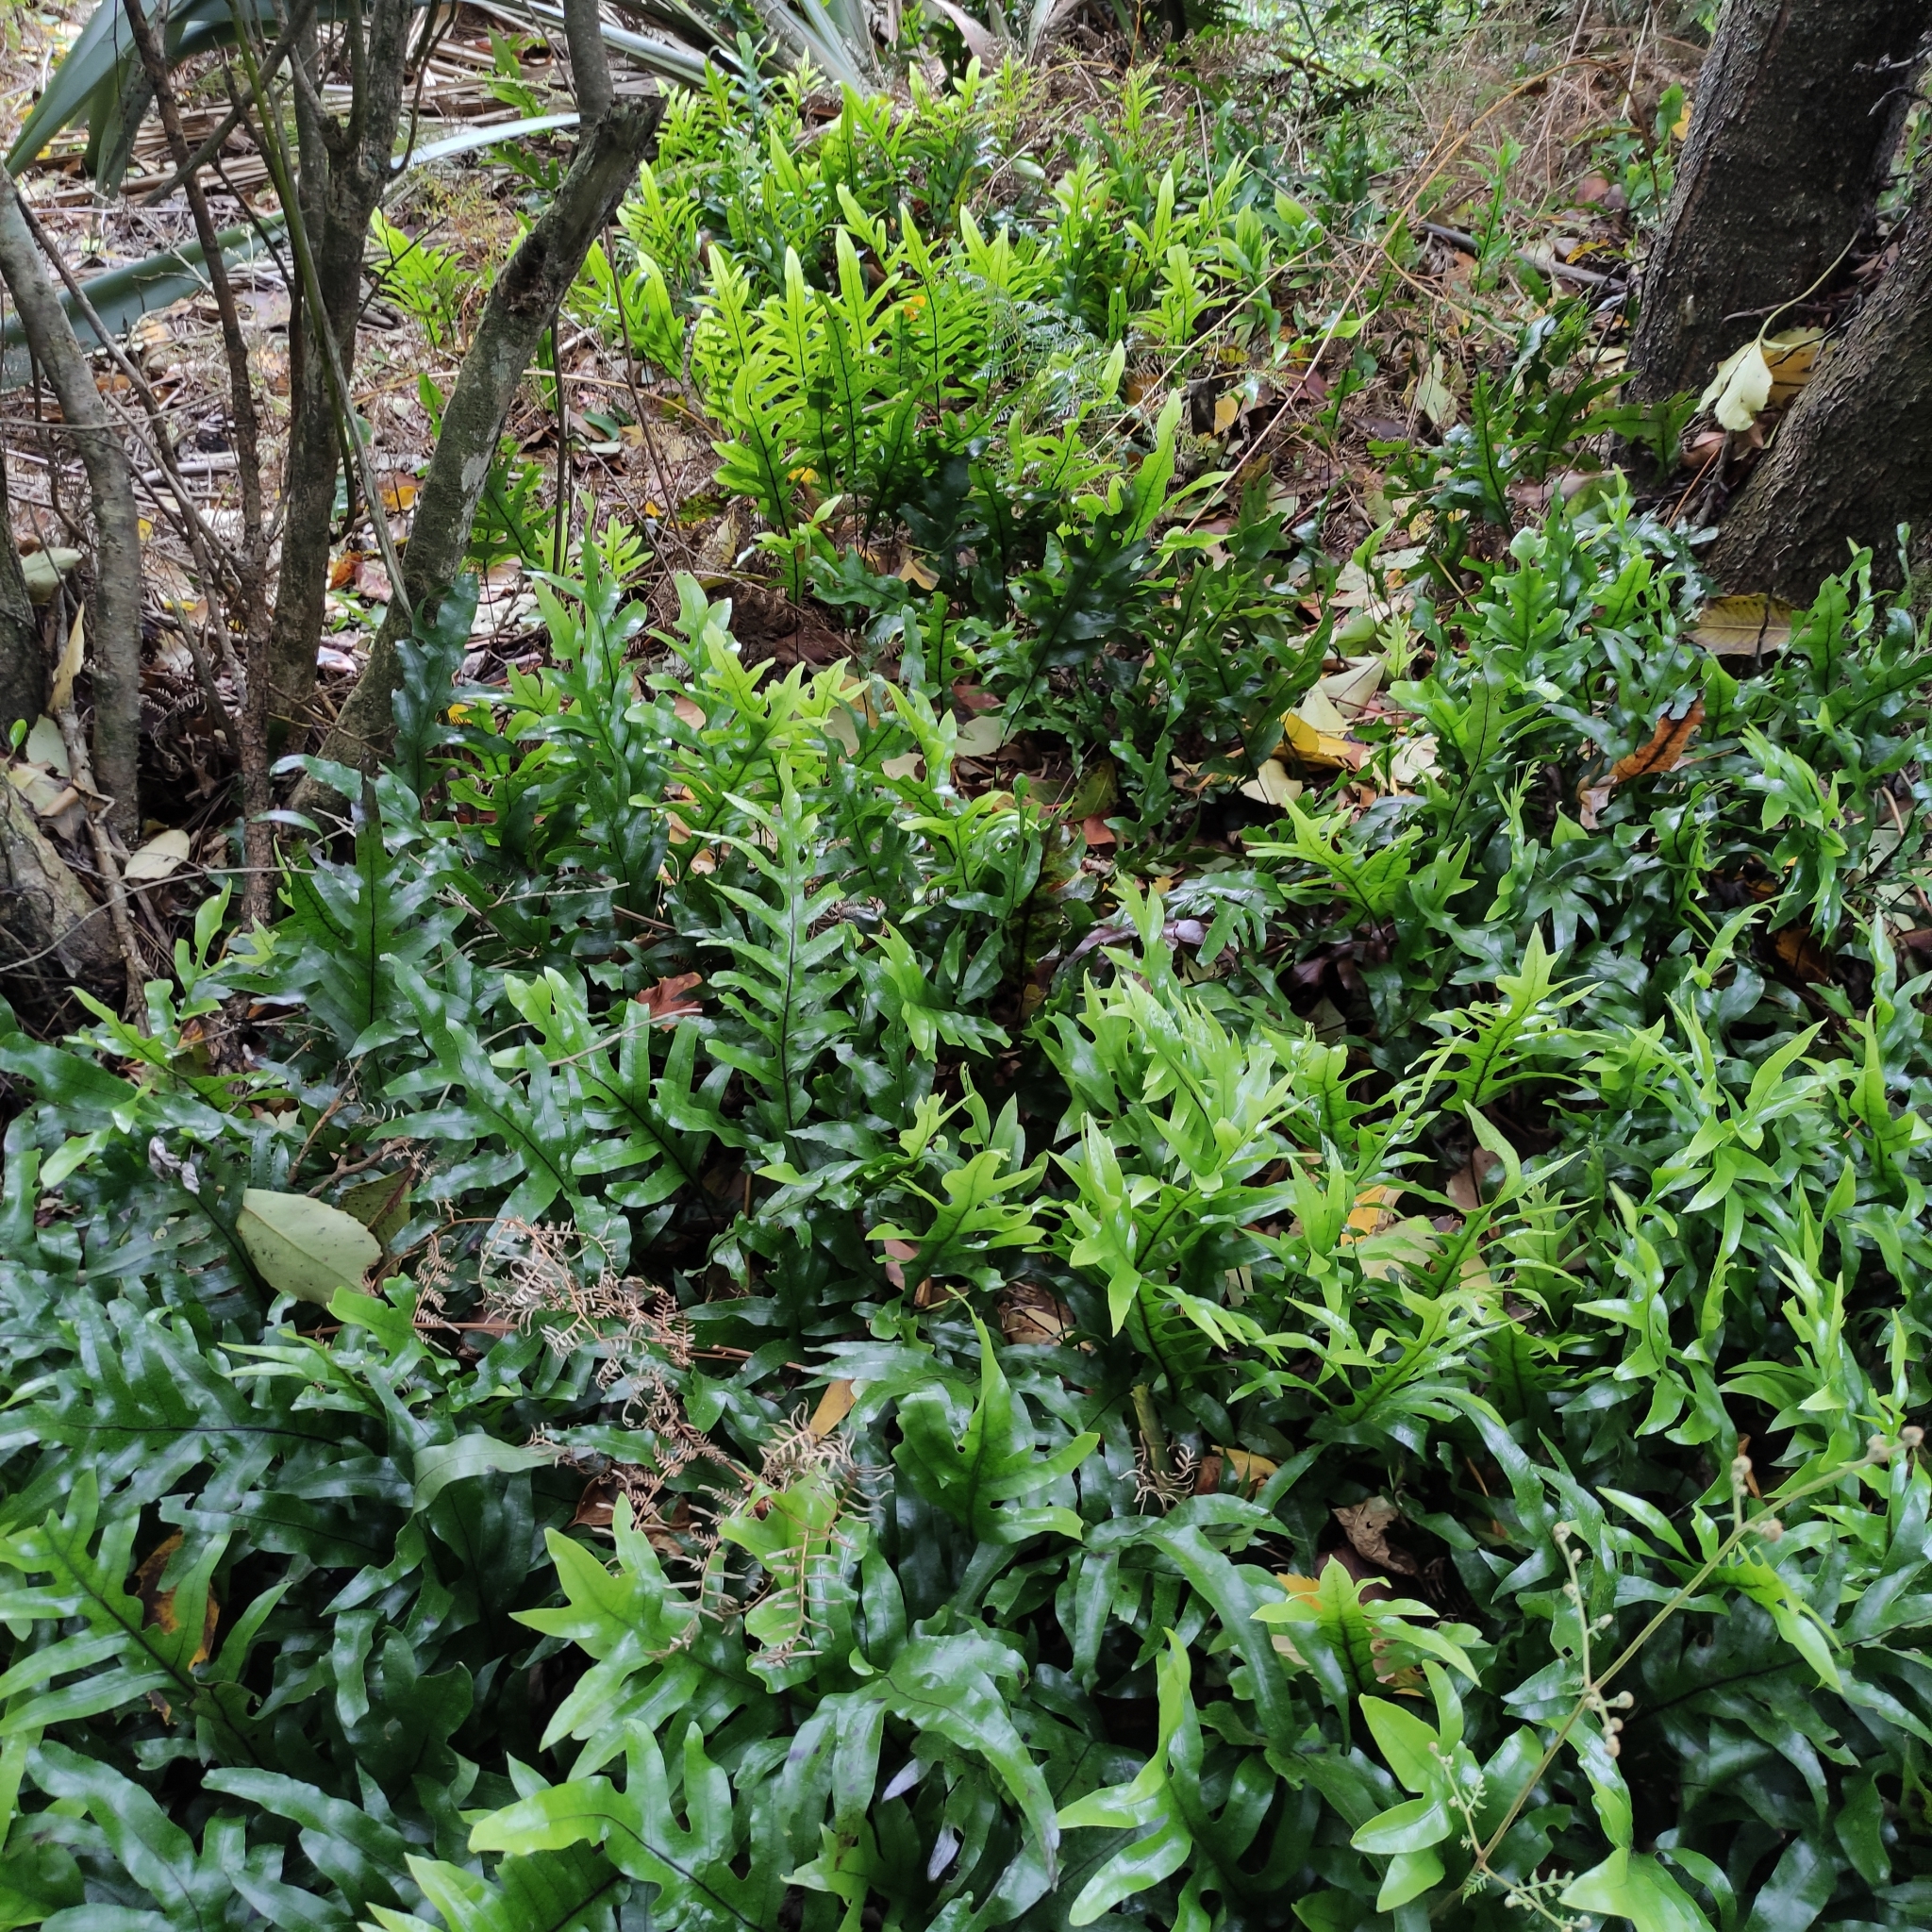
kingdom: Plantae
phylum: Tracheophyta
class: Polypodiopsida
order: Polypodiales
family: Polypodiaceae
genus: Lecanopteris
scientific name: Lecanopteris pustulata
